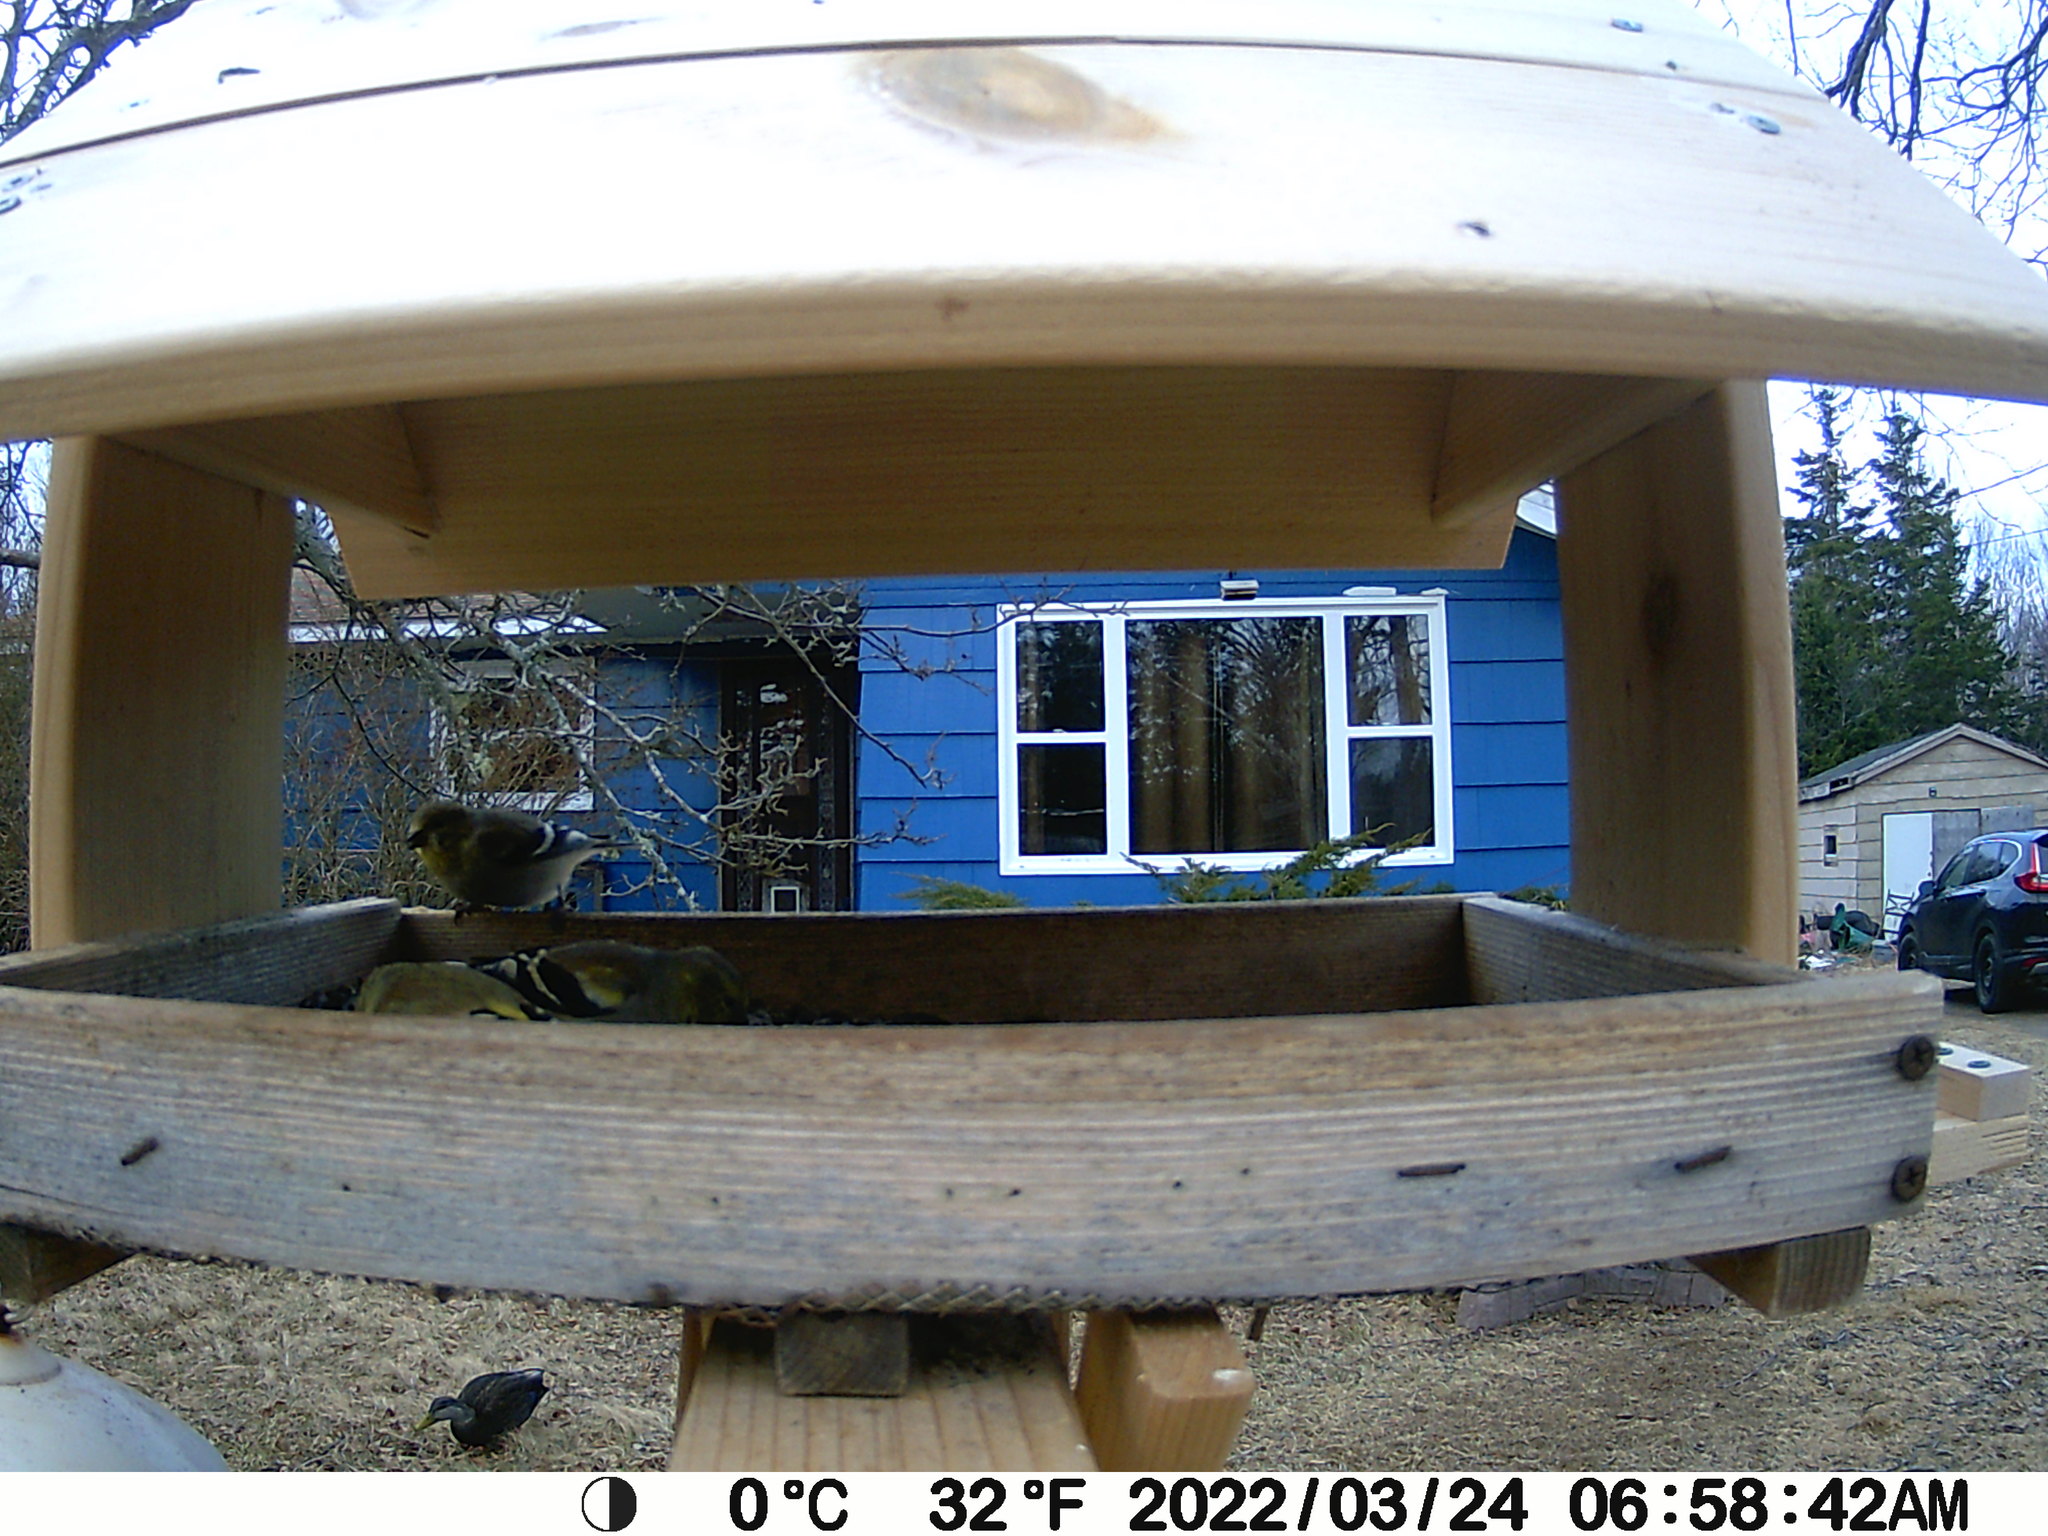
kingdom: Animalia
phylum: Chordata
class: Aves
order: Anseriformes
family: Anatidae
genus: Anas
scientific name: Anas rubripes
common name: American black duck
